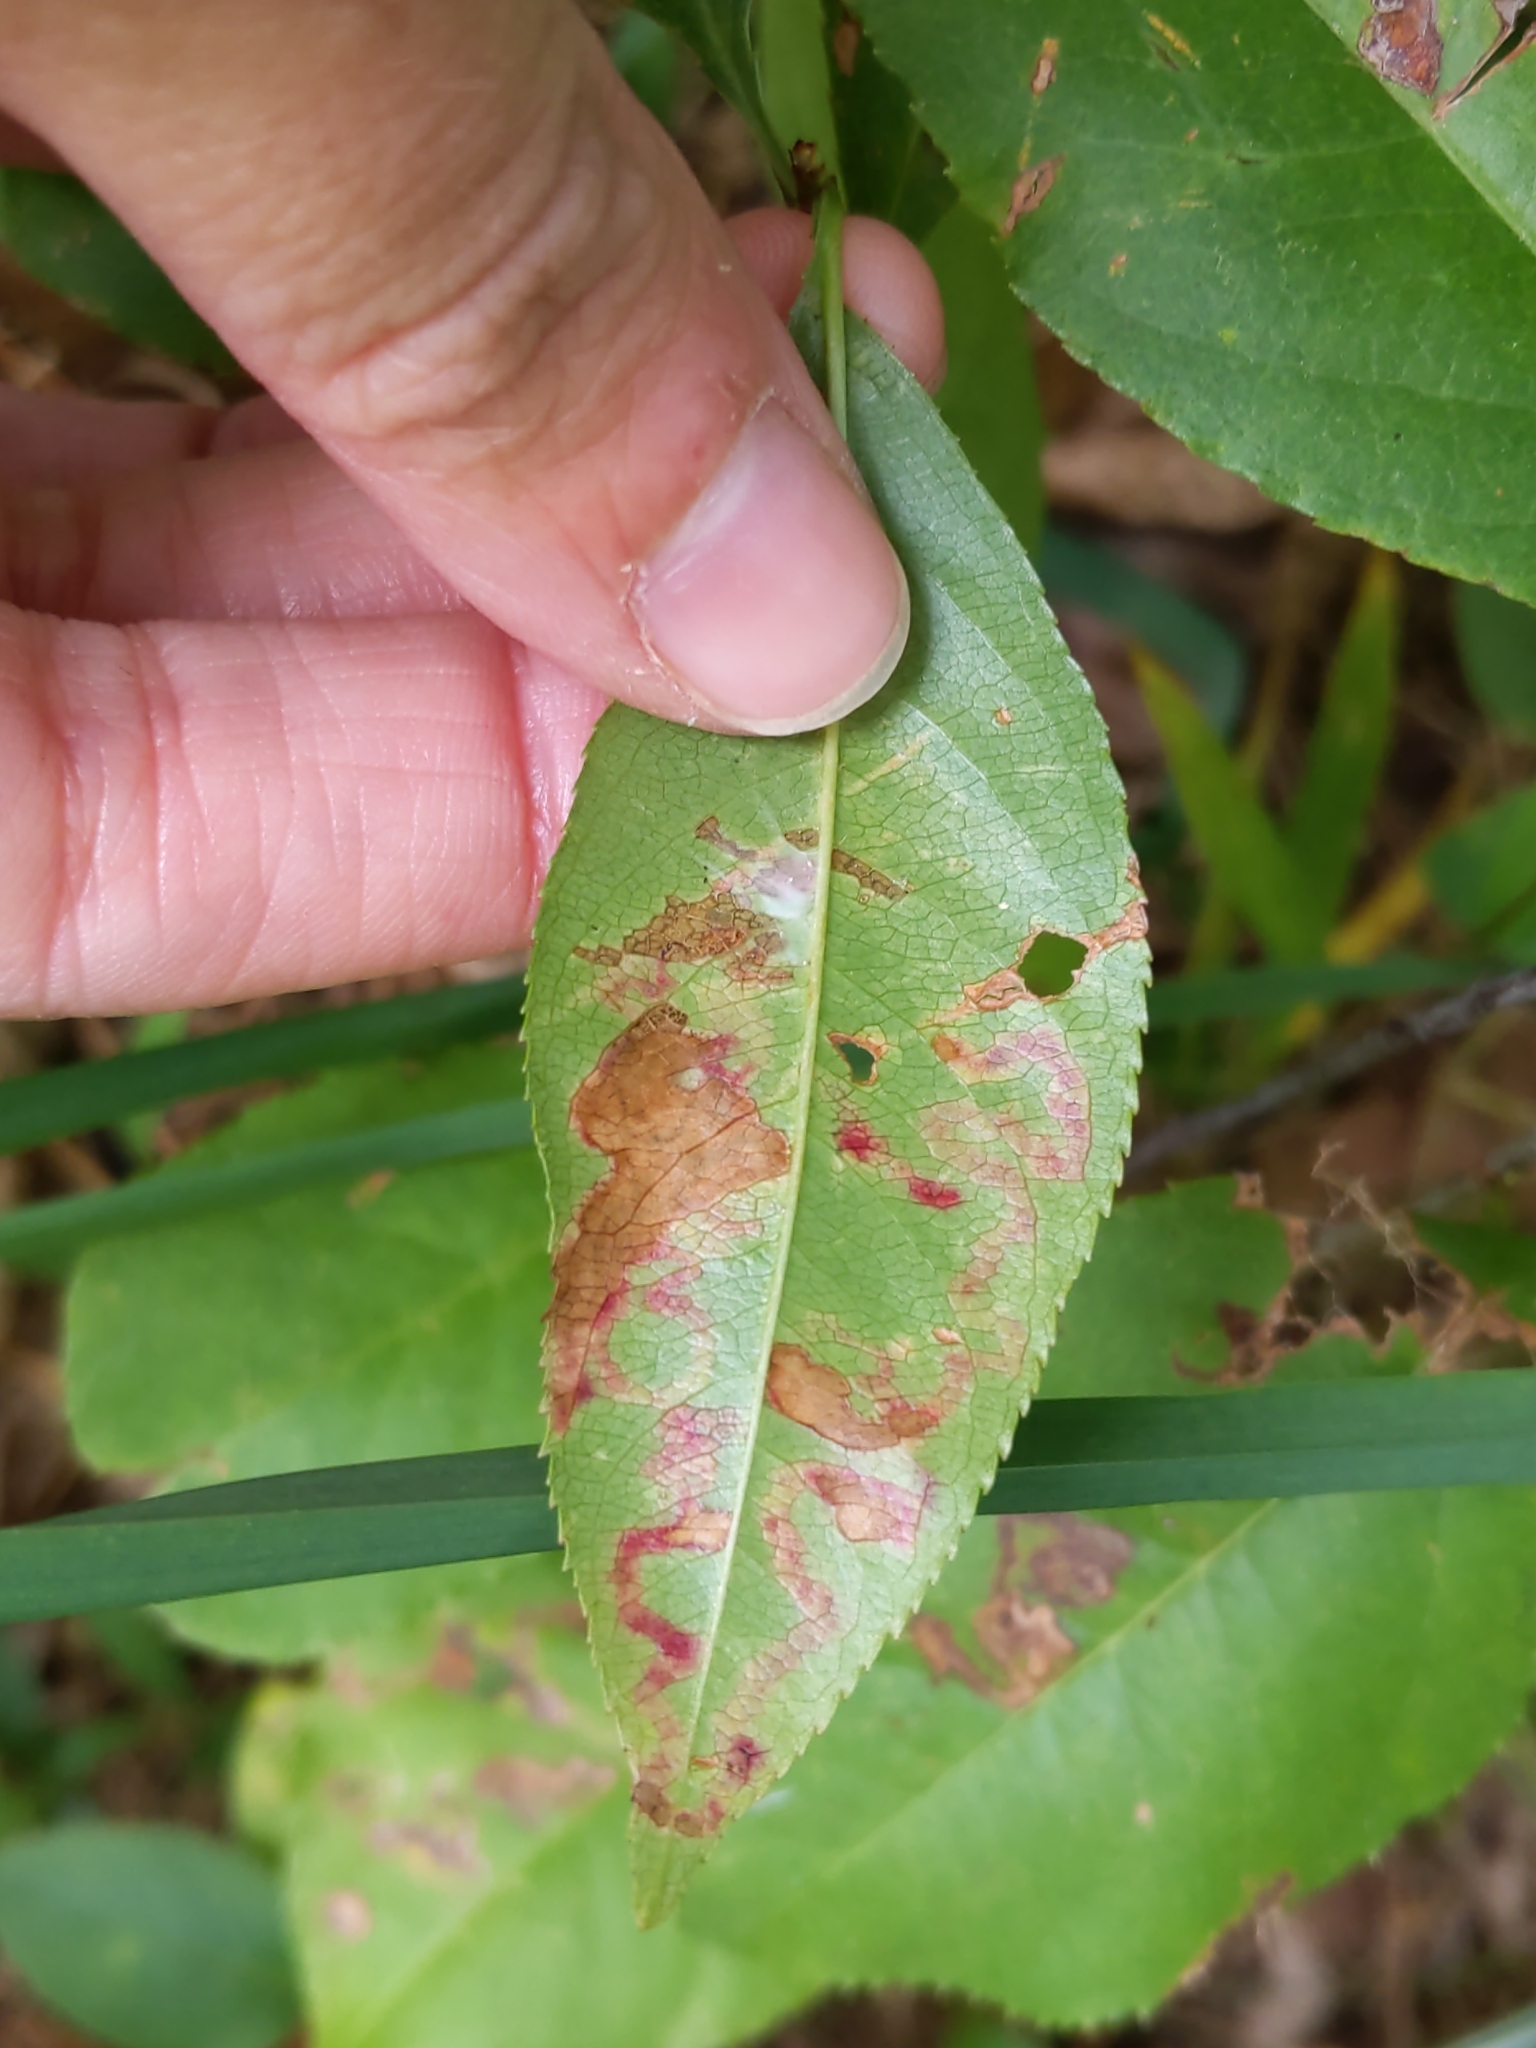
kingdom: Animalia
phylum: Arthropoda
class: Insecta
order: Lepidoptera
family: Nepticulidae
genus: Stigmella
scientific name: Stigmella prunifoliella
